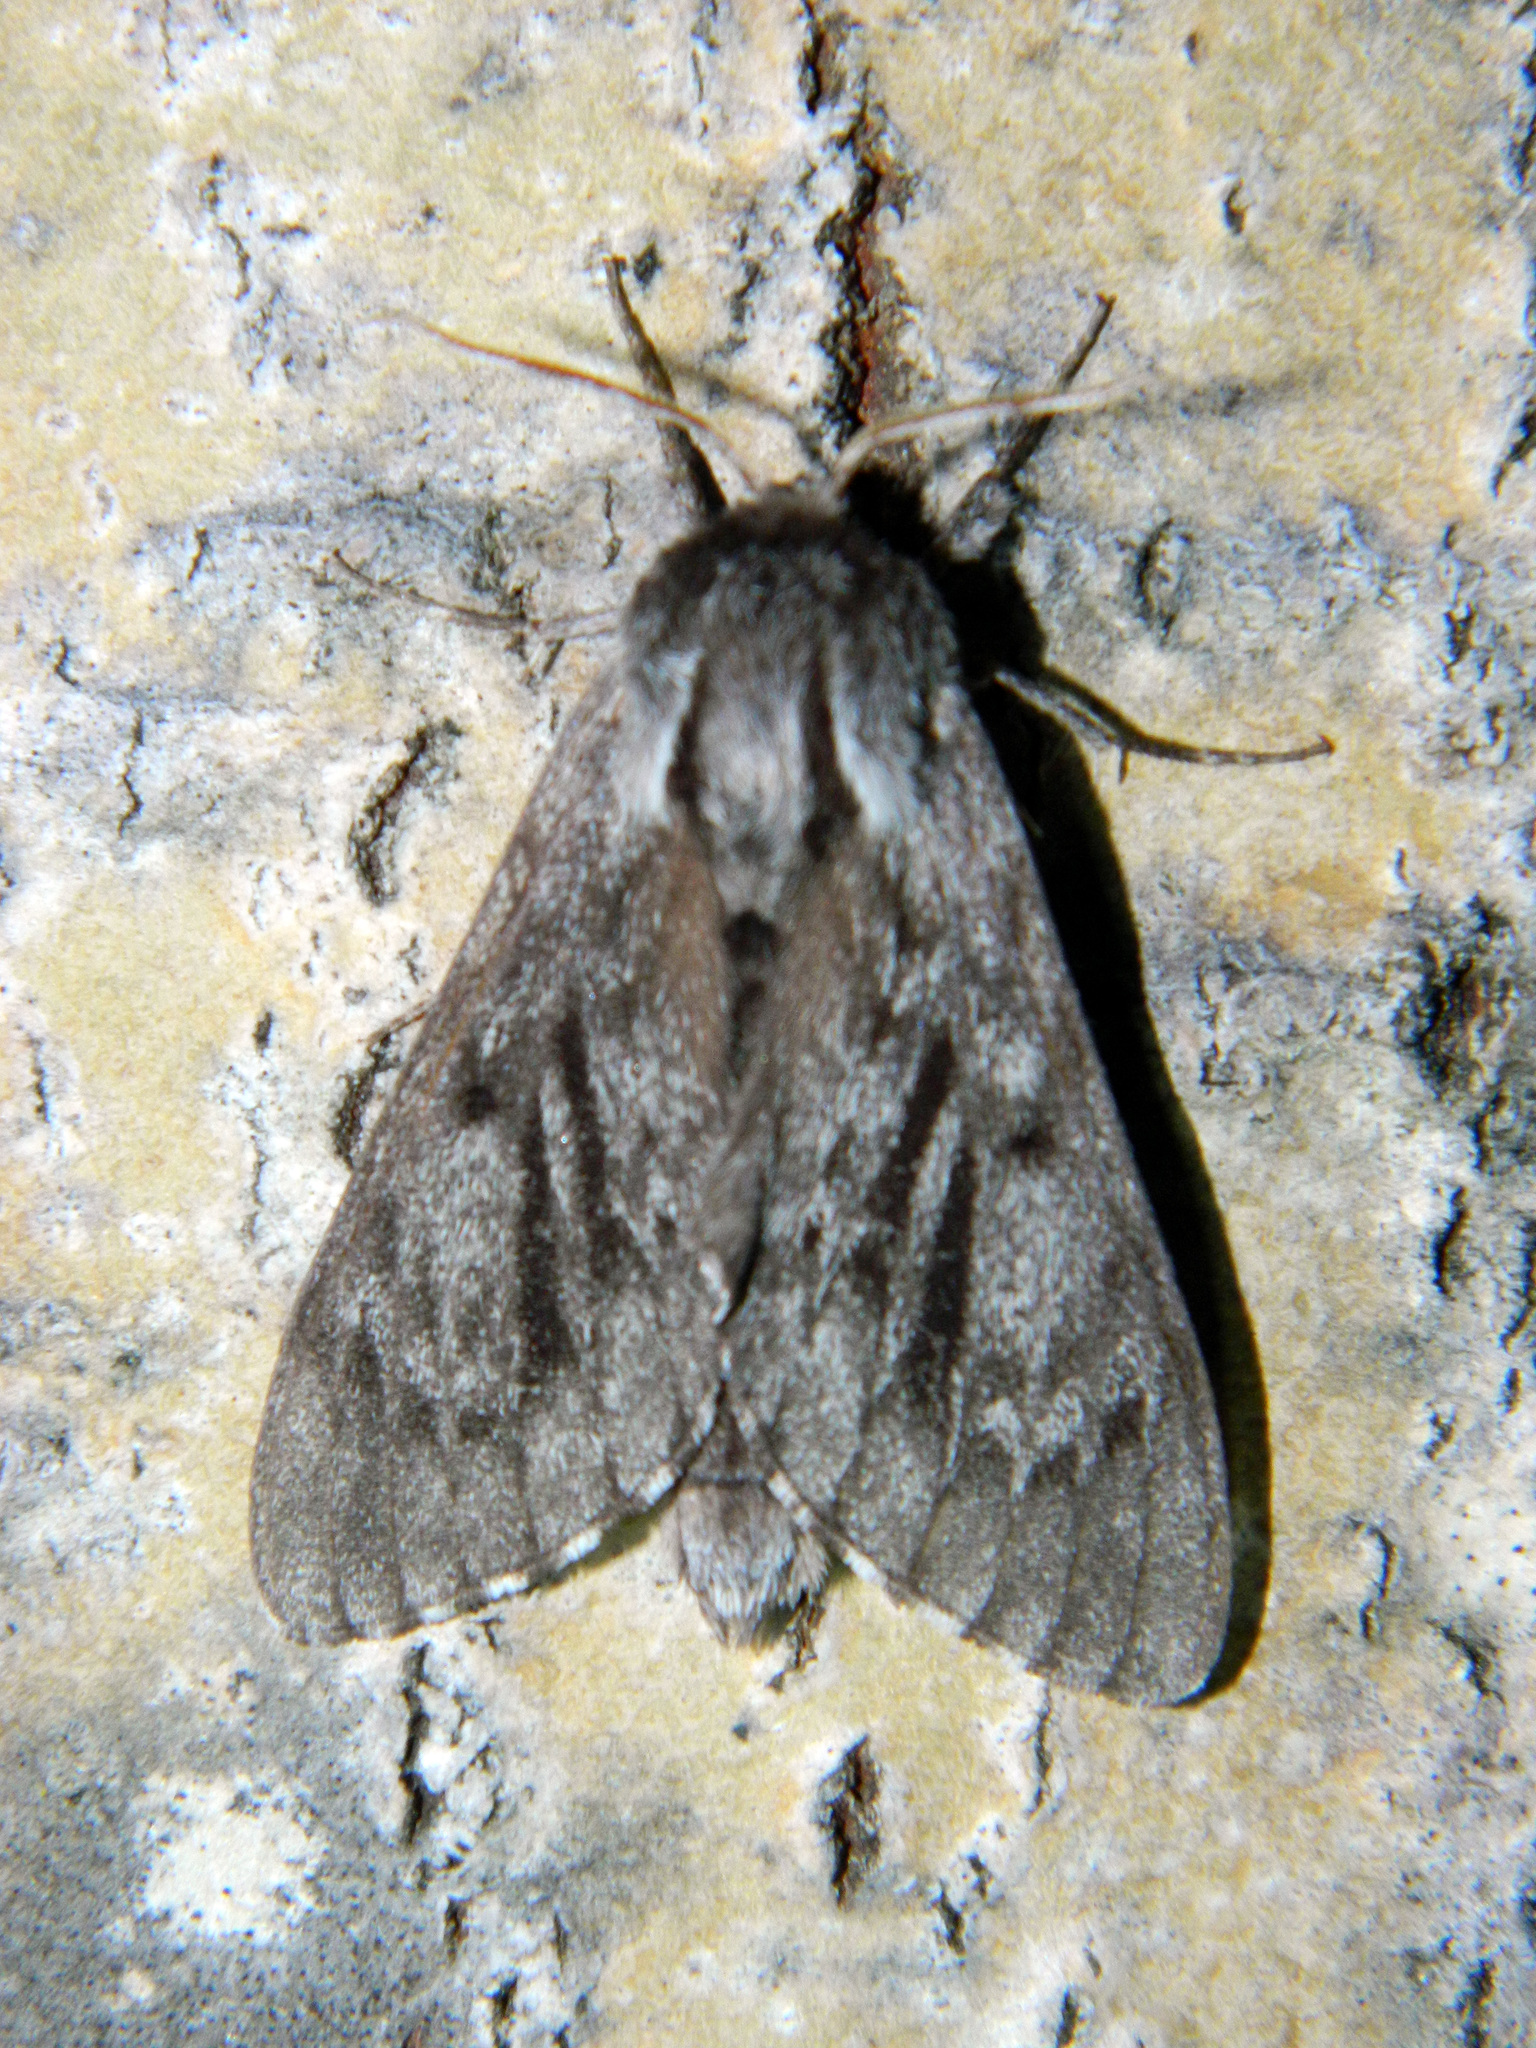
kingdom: Animalia
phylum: Arthropoda
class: Insecta
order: Lepidoptera
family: Sphingidae
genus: Lapara
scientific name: Lapara bombycoides
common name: Northern pine sphinx
